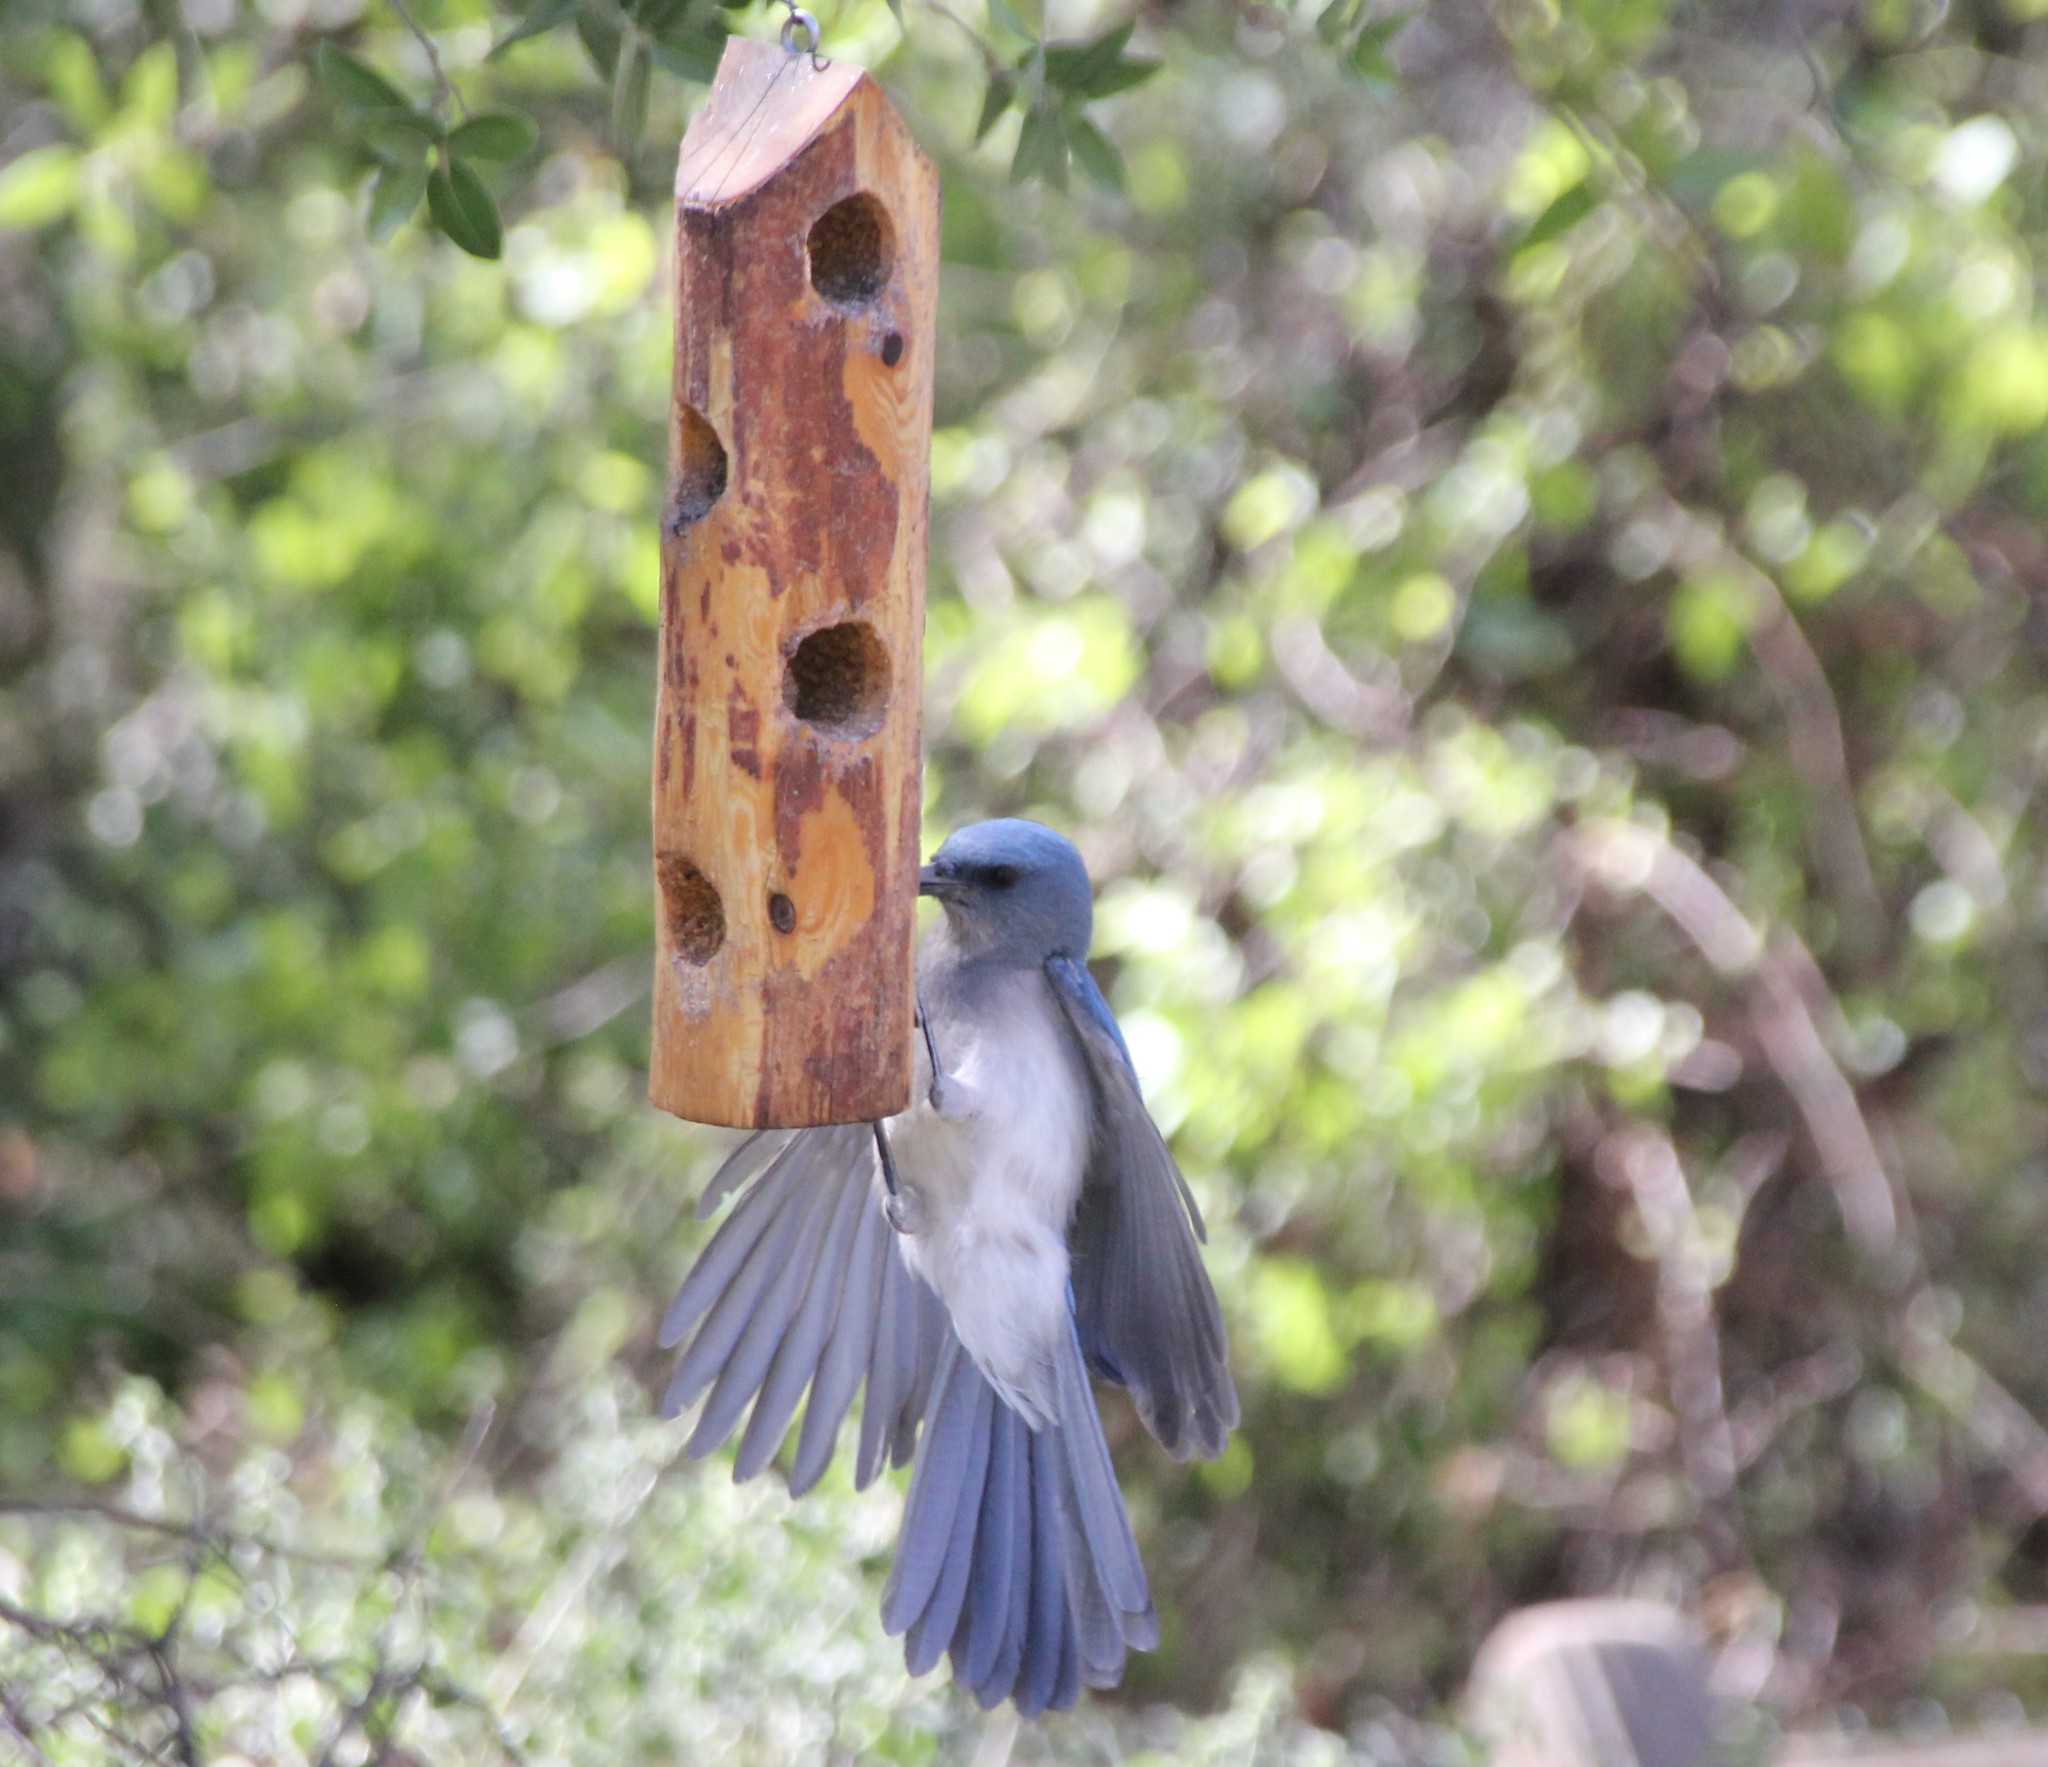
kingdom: Animalia
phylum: Chordata
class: Aves
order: Passeriformes
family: Corvidae
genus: Aphelocoma
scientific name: Aphelocoma wollweberi
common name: Mexican jay
